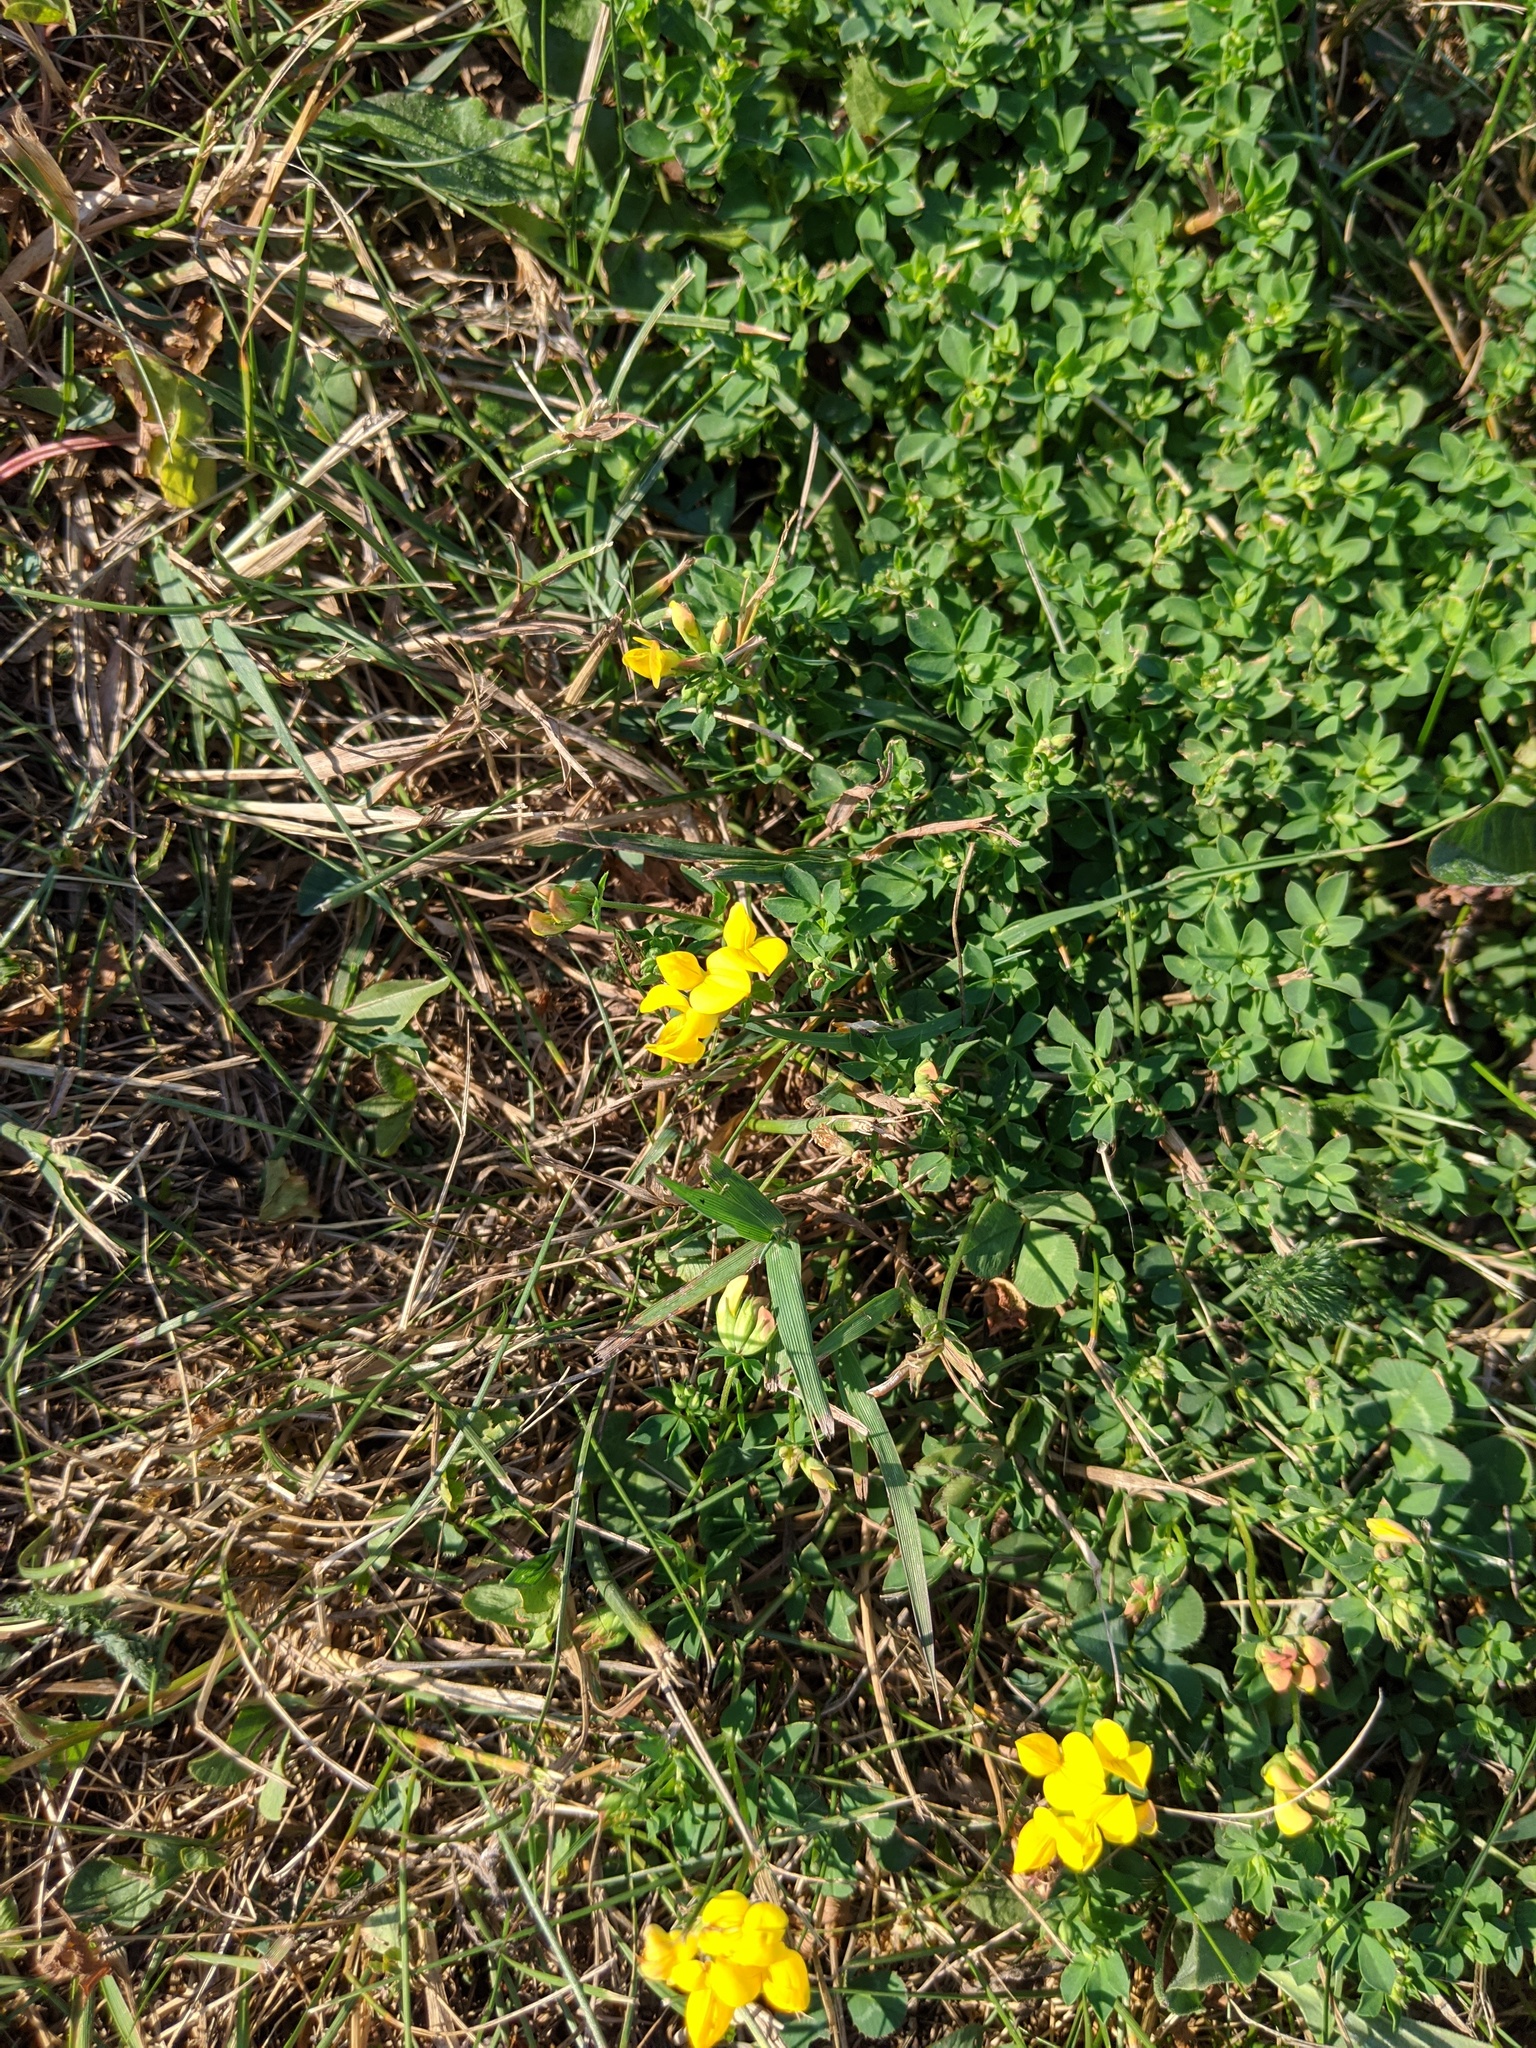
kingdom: Plantae
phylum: Tracheophyta
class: Magnoliopsida
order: Fabales
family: Fabaceae
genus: Lotus
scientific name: Lotus corniculatus
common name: Common bird's-foot-trefoil
